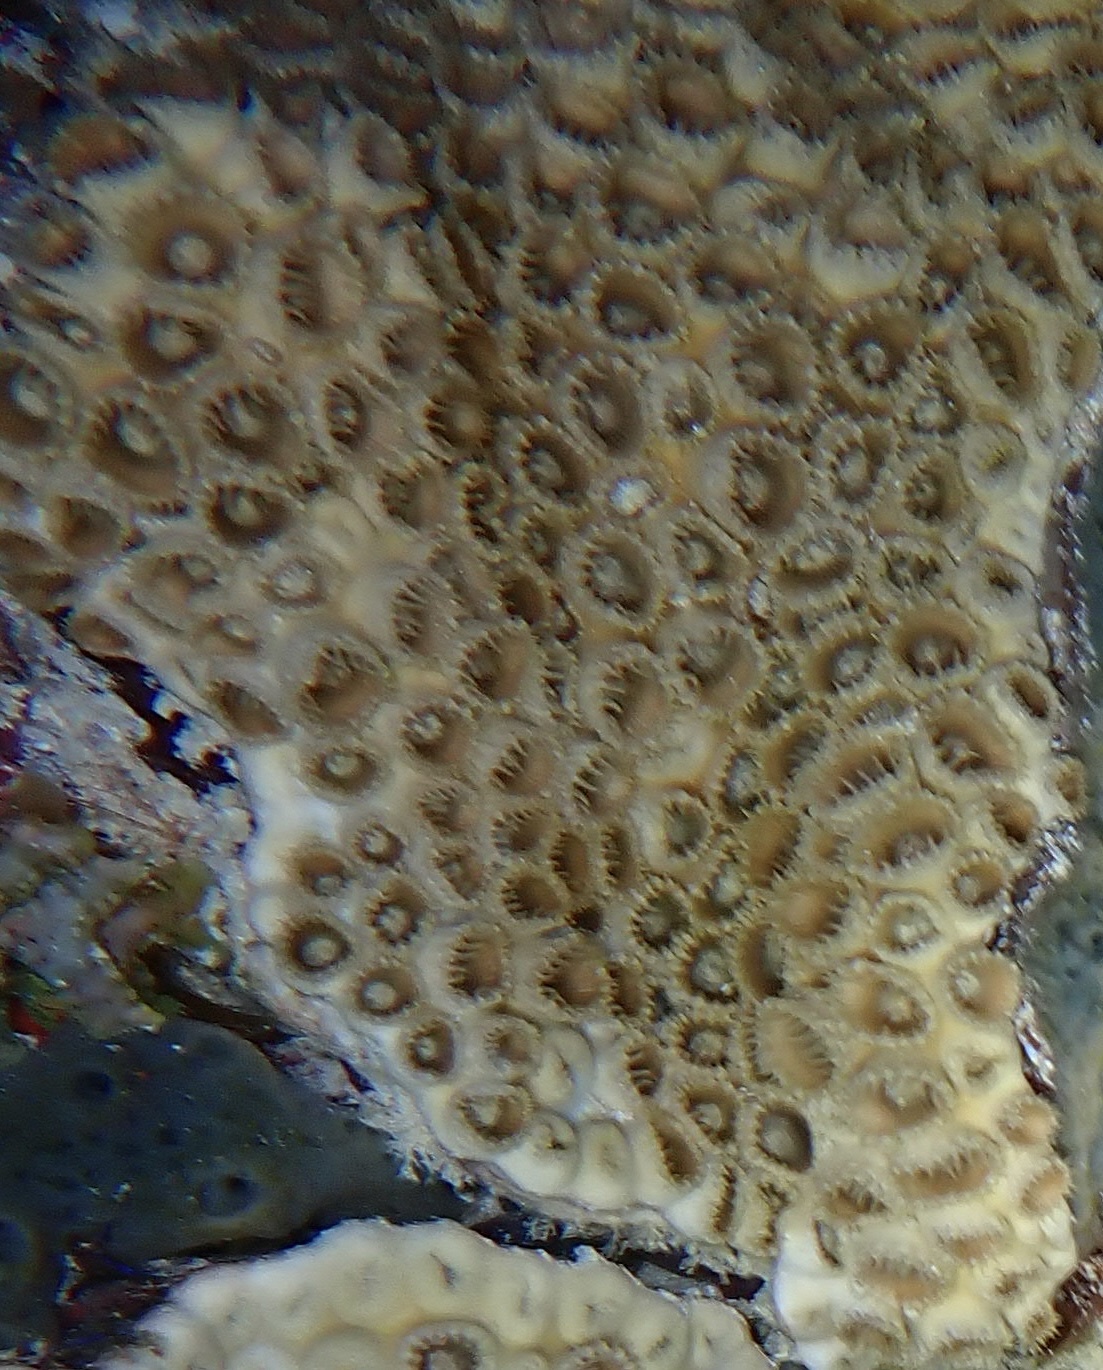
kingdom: Animalia
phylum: Cnidaria
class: Anthozoa
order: Zoantharia
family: Sphenopidae
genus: Palythoa
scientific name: Palythoa caribaeorum
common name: Encrusting colonial anemone
